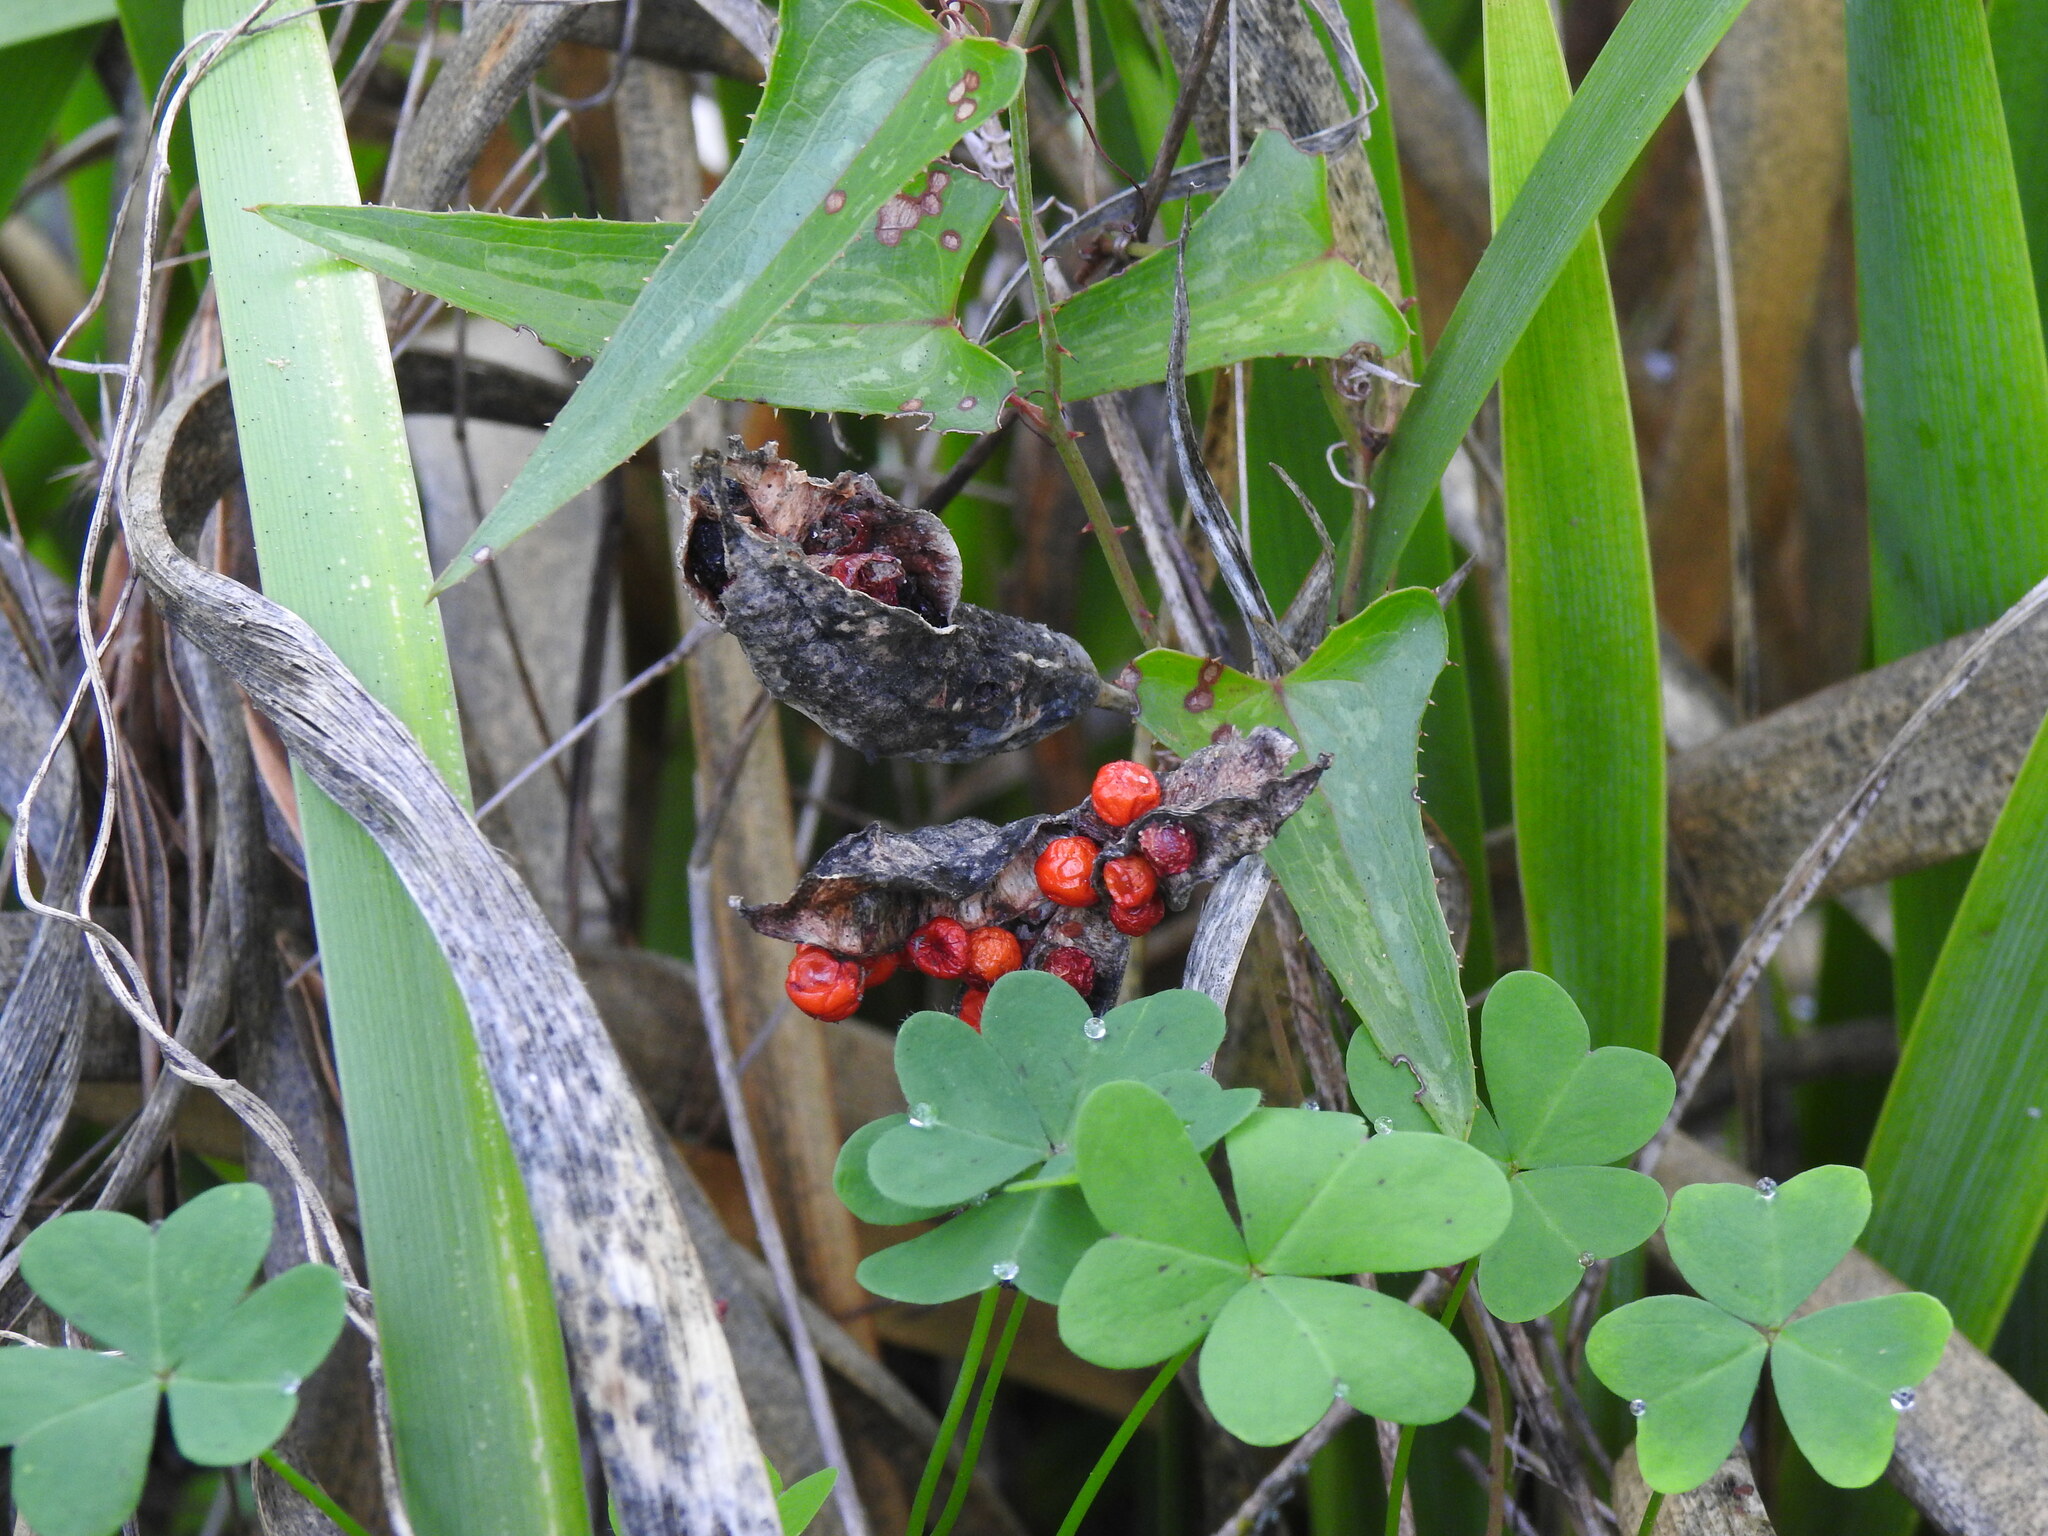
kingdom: Plantae
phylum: Tracheophyta
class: Liliopsida
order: Asparagales
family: Iridaceae
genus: Iris
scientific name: Iris foetidissima
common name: Stinking iris
